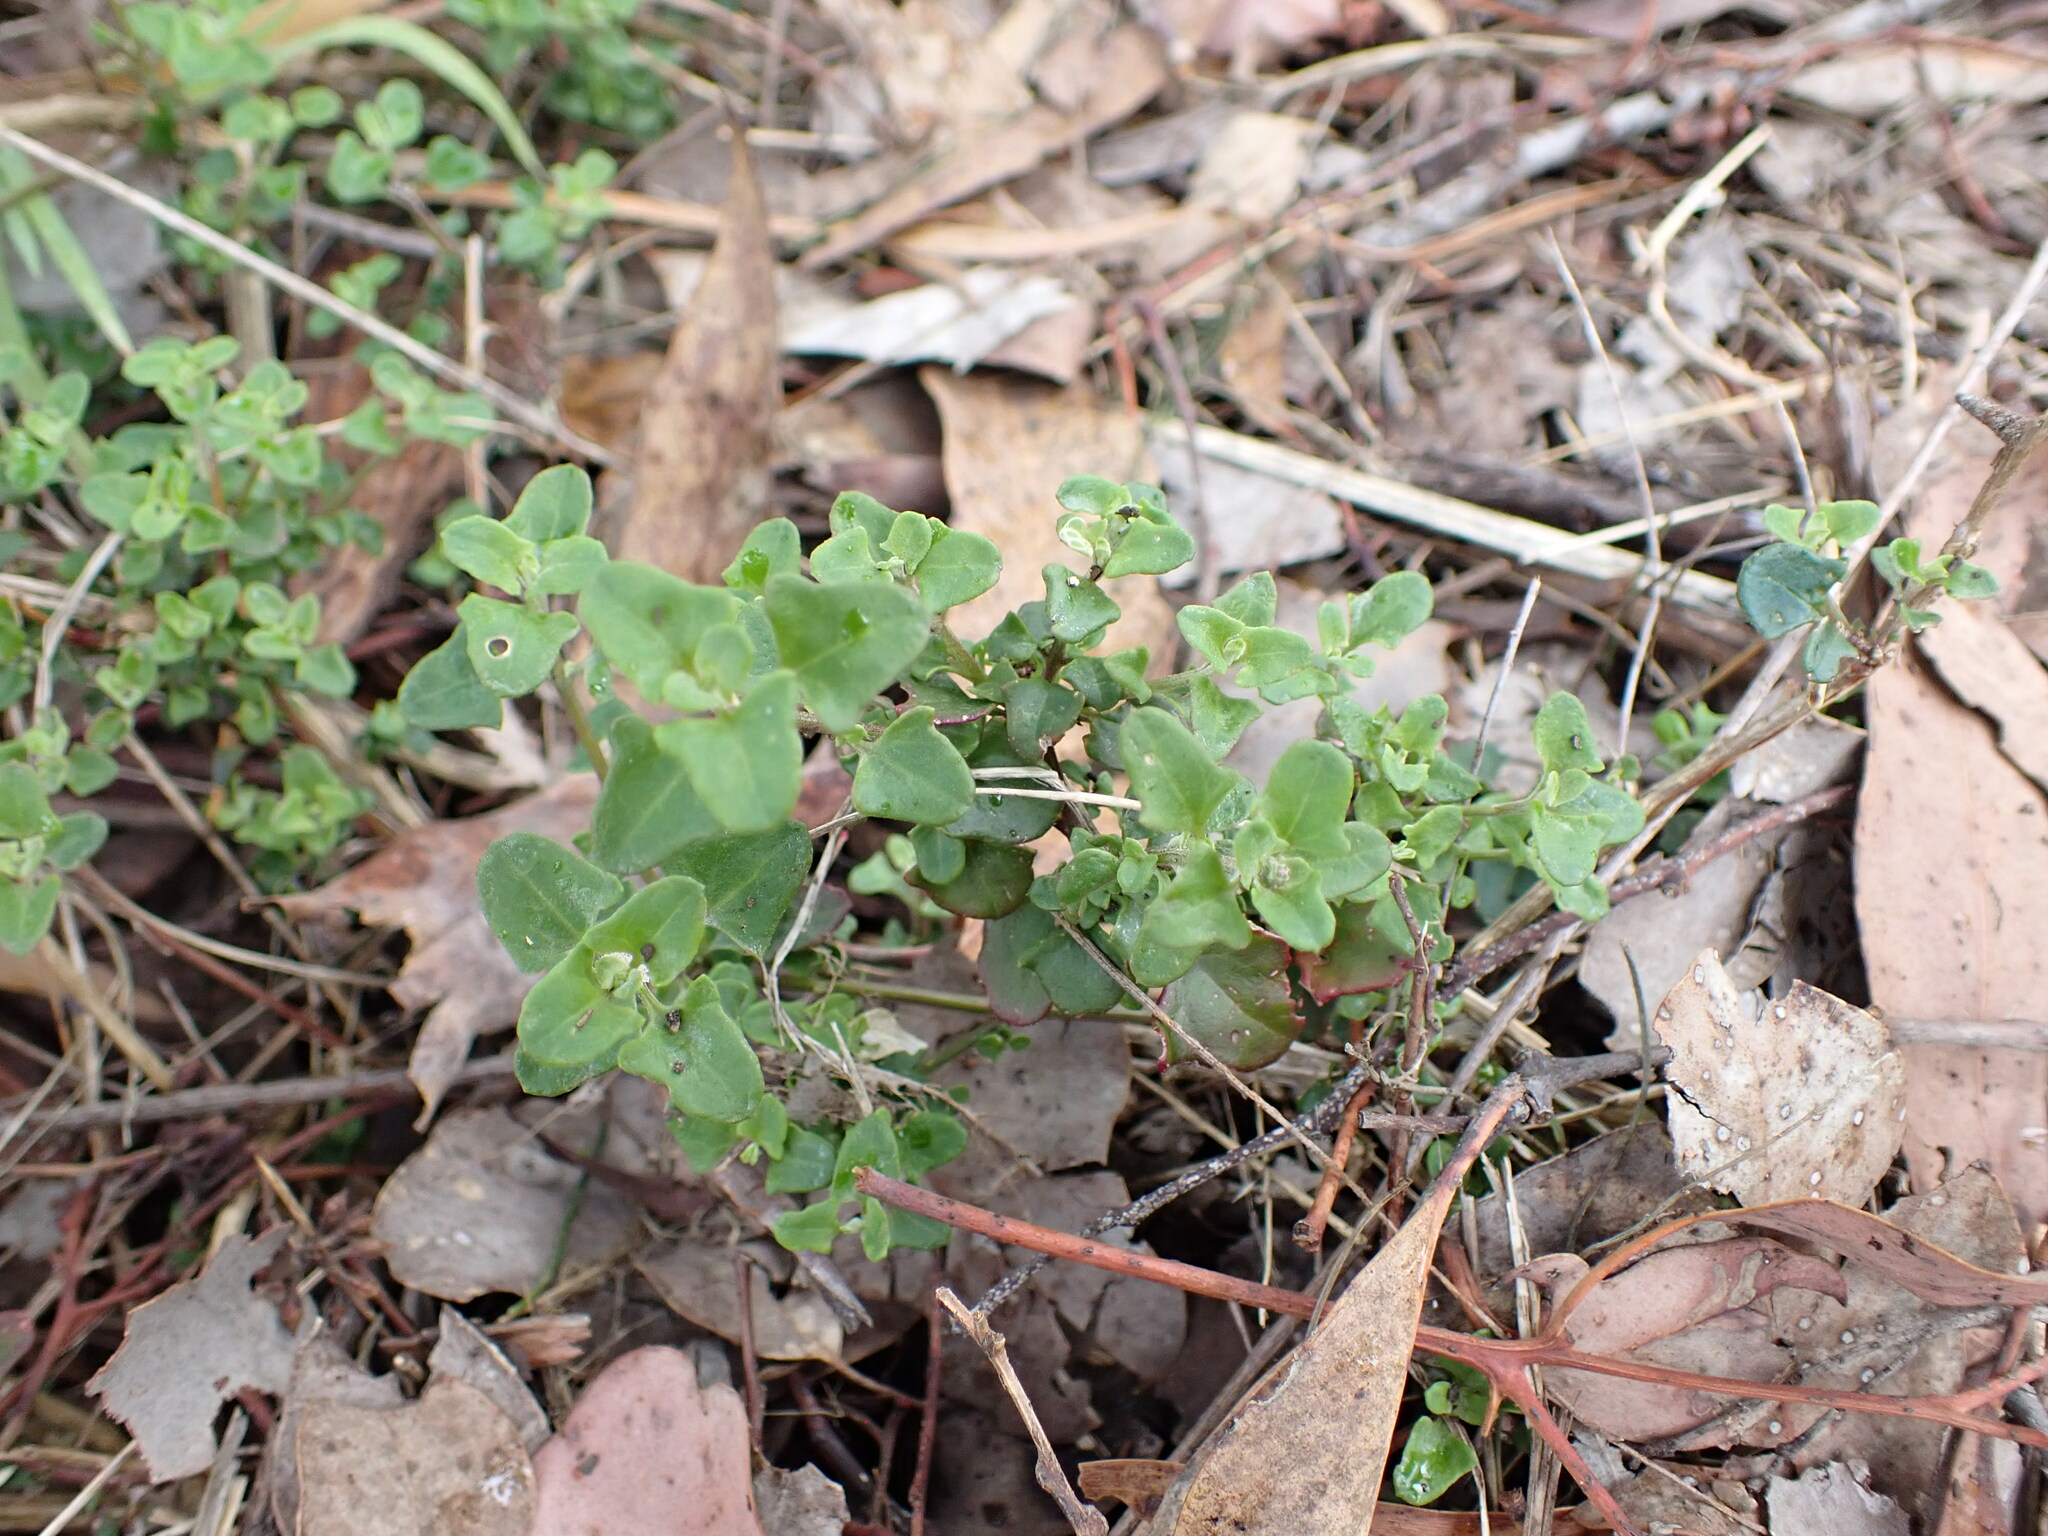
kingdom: Plantae
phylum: Tracheophyta
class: Magnoliopsida
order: Caryophyllales
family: Amaranthaceae
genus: Chenopodium
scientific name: Chenopodium robertianum
